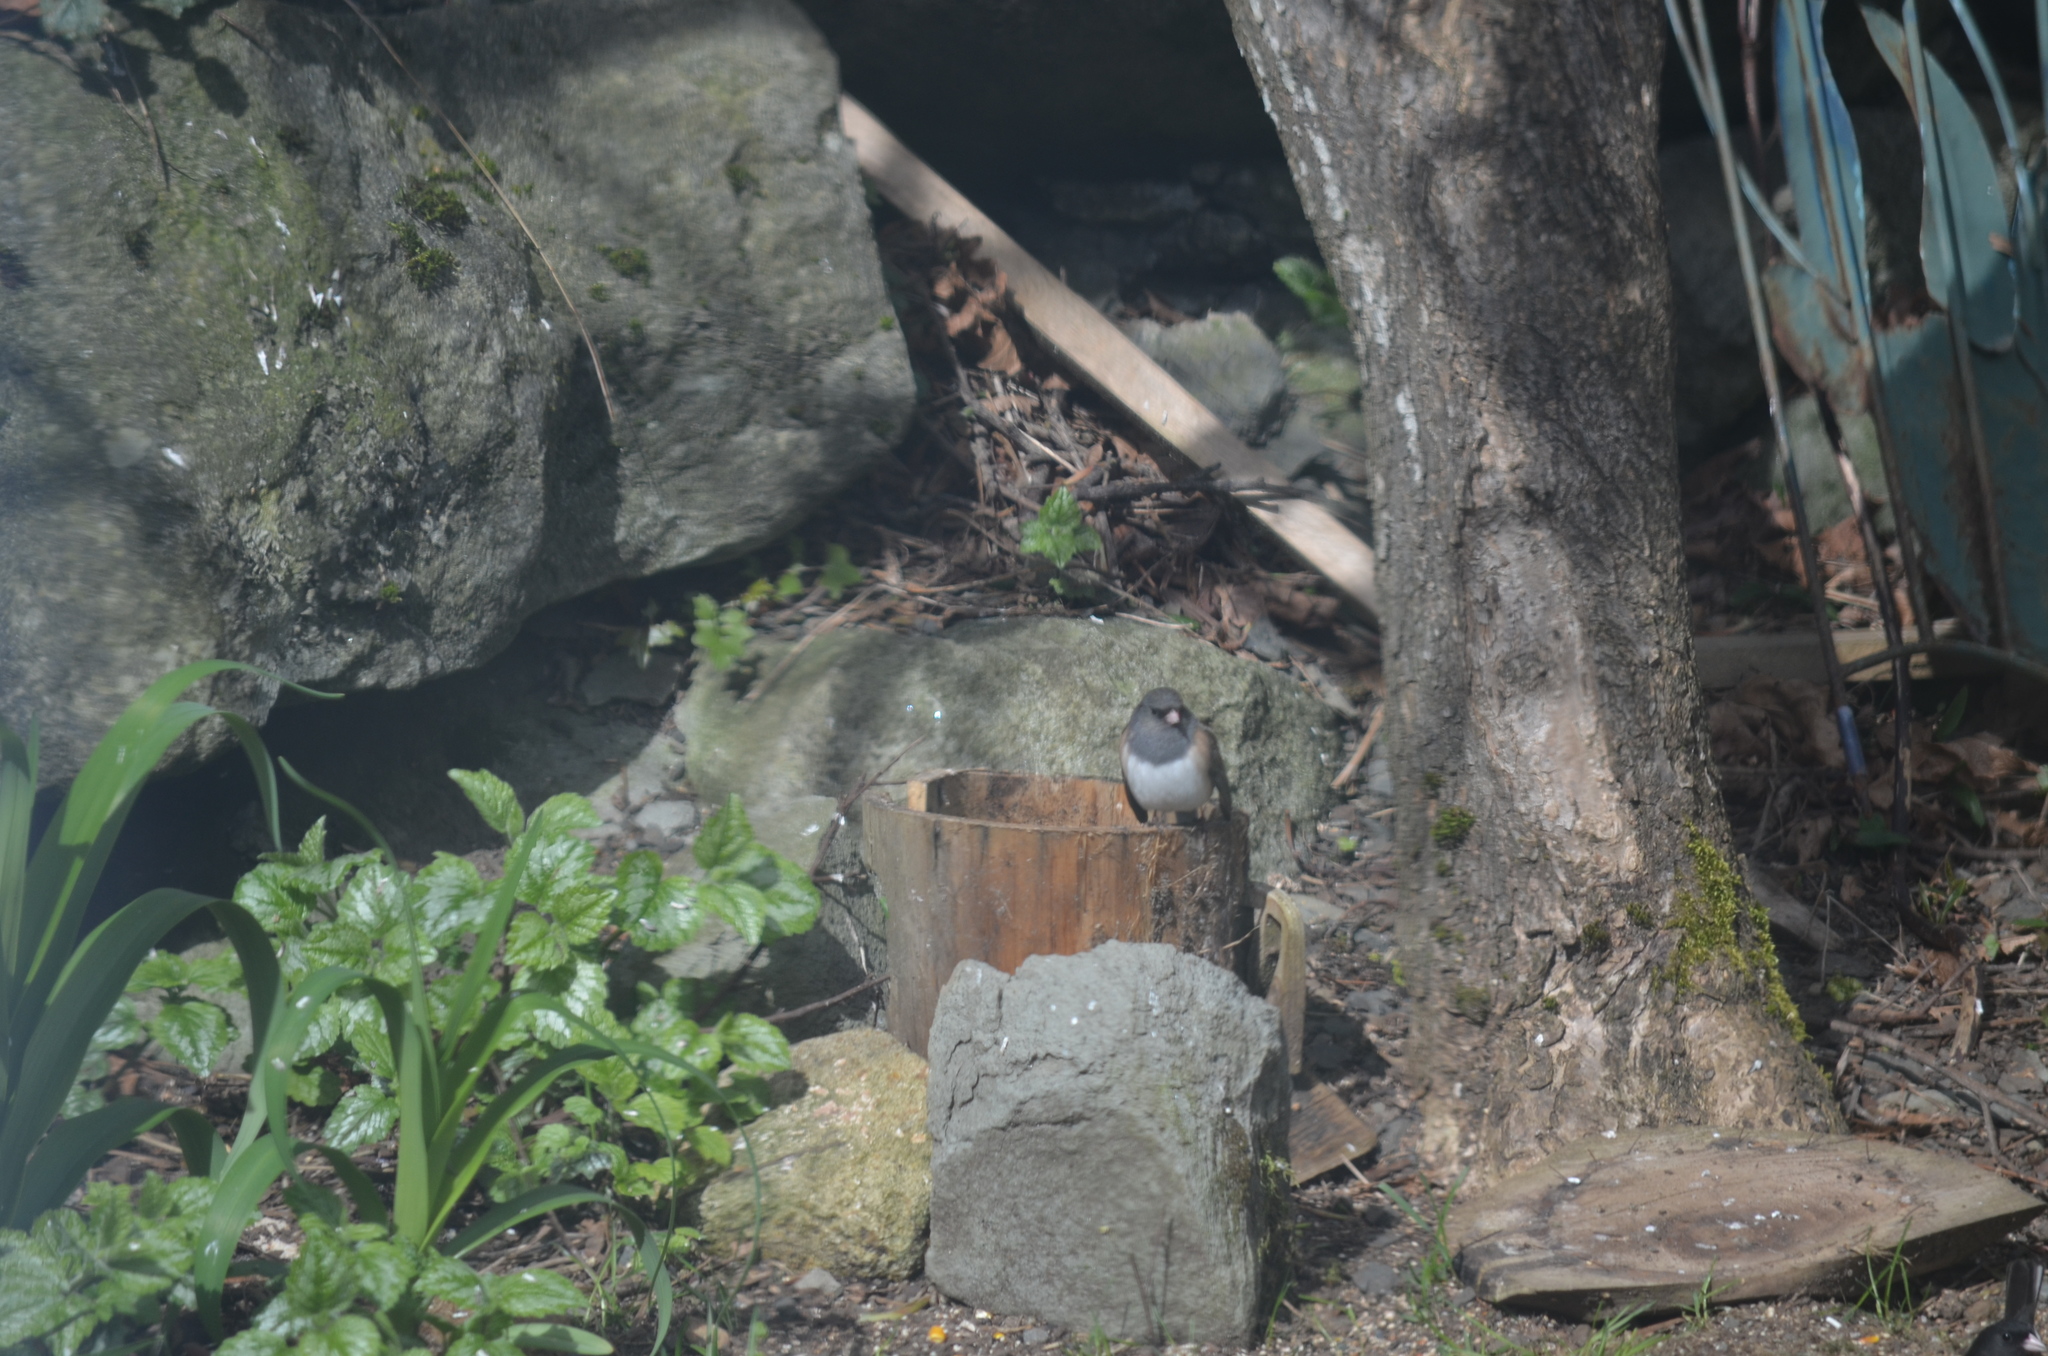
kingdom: Animalia
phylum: Chordata
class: Aves
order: Passeriformes
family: Passerellidae
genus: Junco
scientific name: Junco hyemalis
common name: Dark-eyed junco
